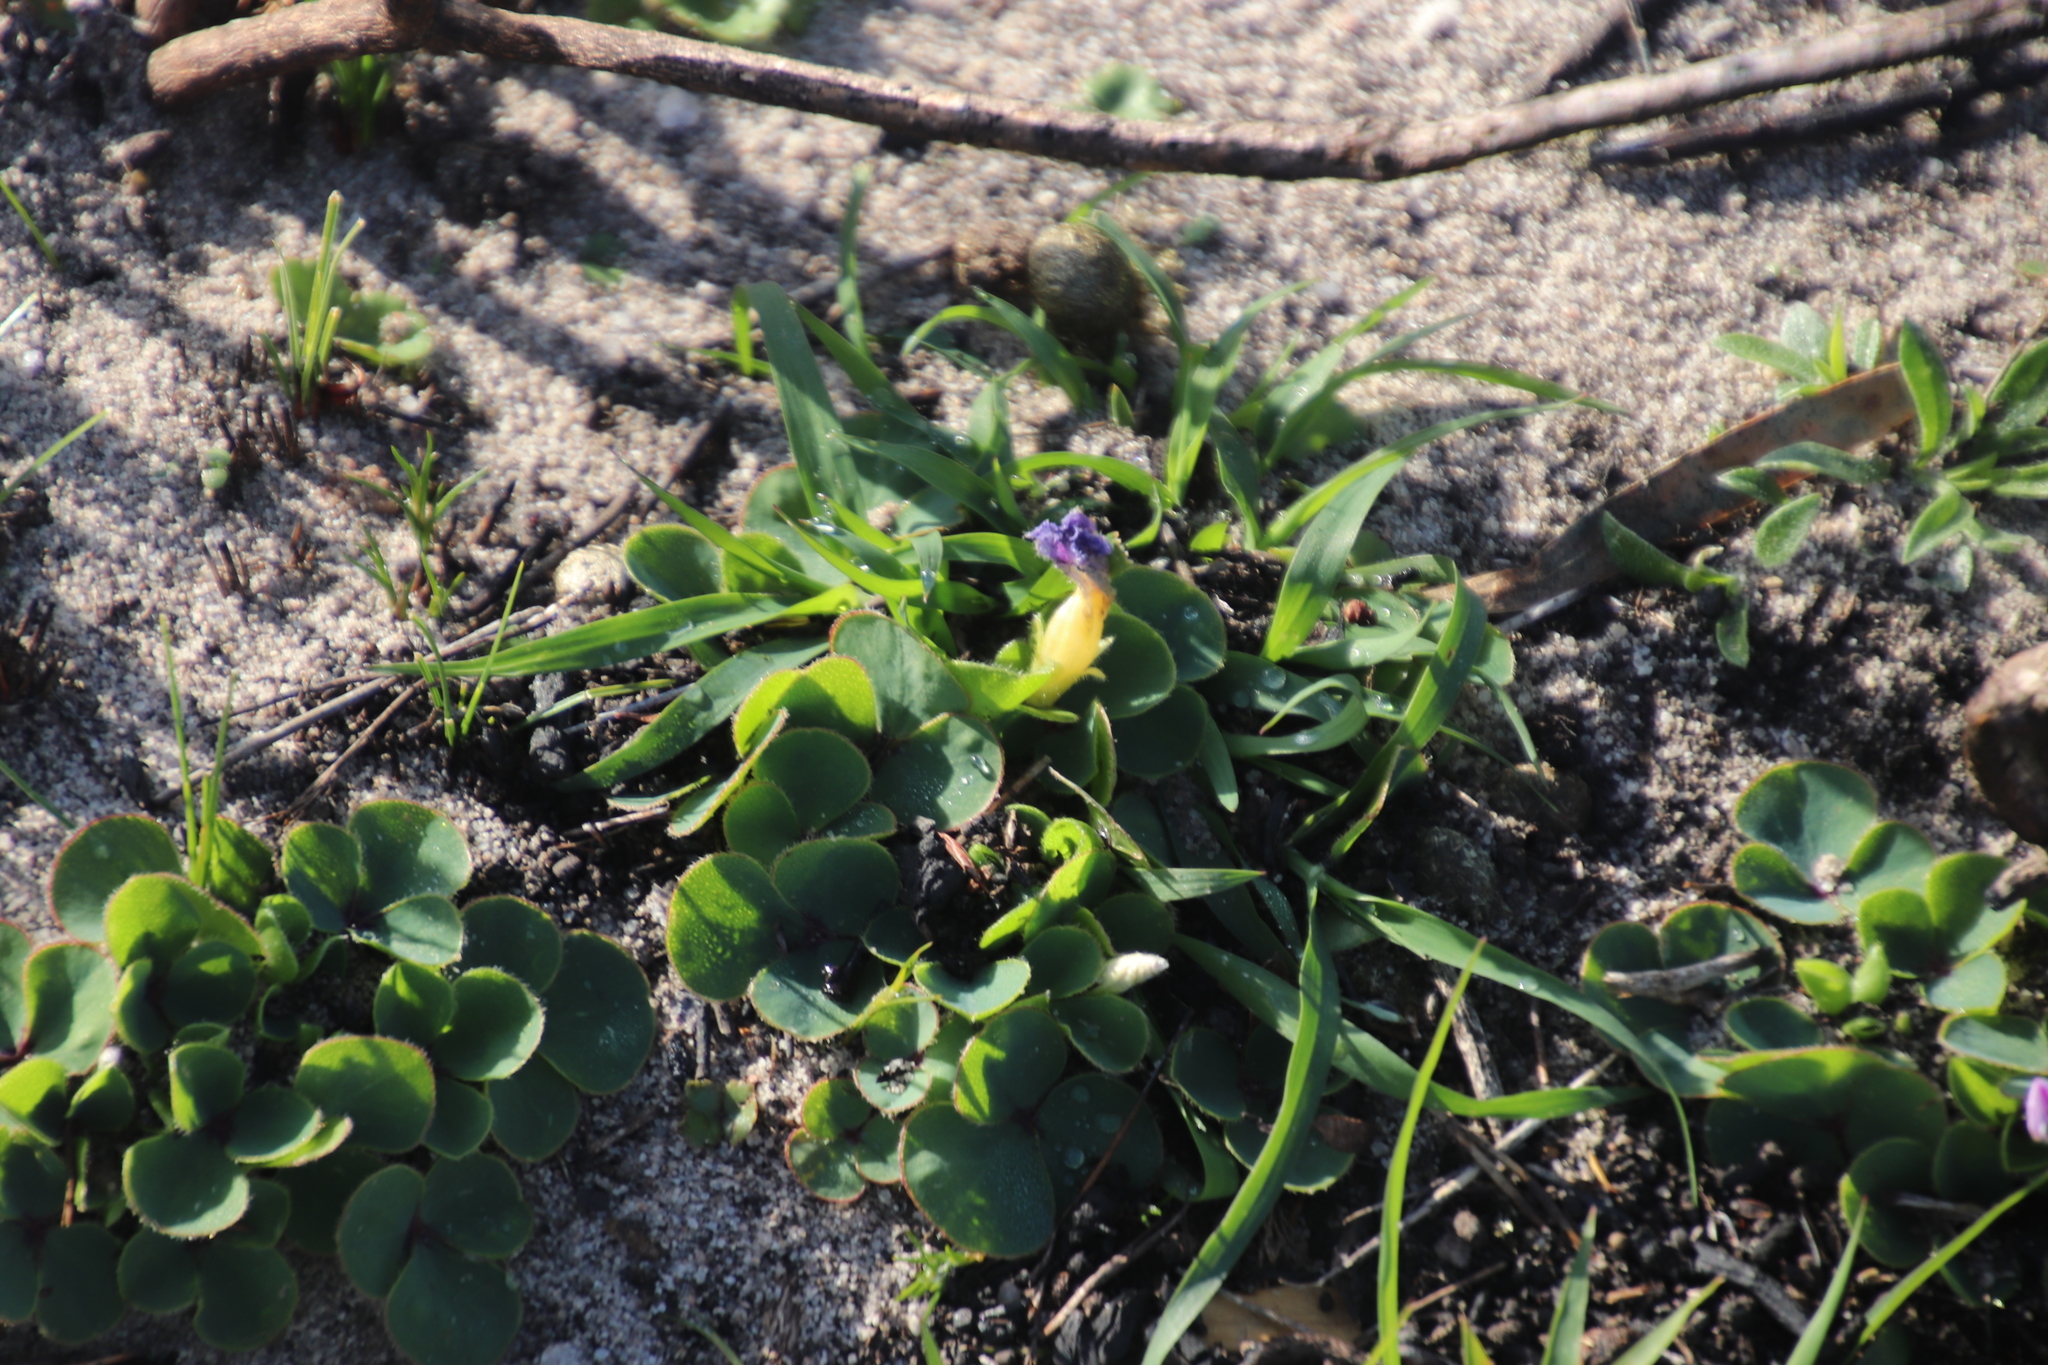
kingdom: Plantae
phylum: Tracheophyta
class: Magnoliopsida
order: Oxalidales
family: Oxalidaceae
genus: Oxalis
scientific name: Oxalis purpurea
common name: Purple woodsorrel
